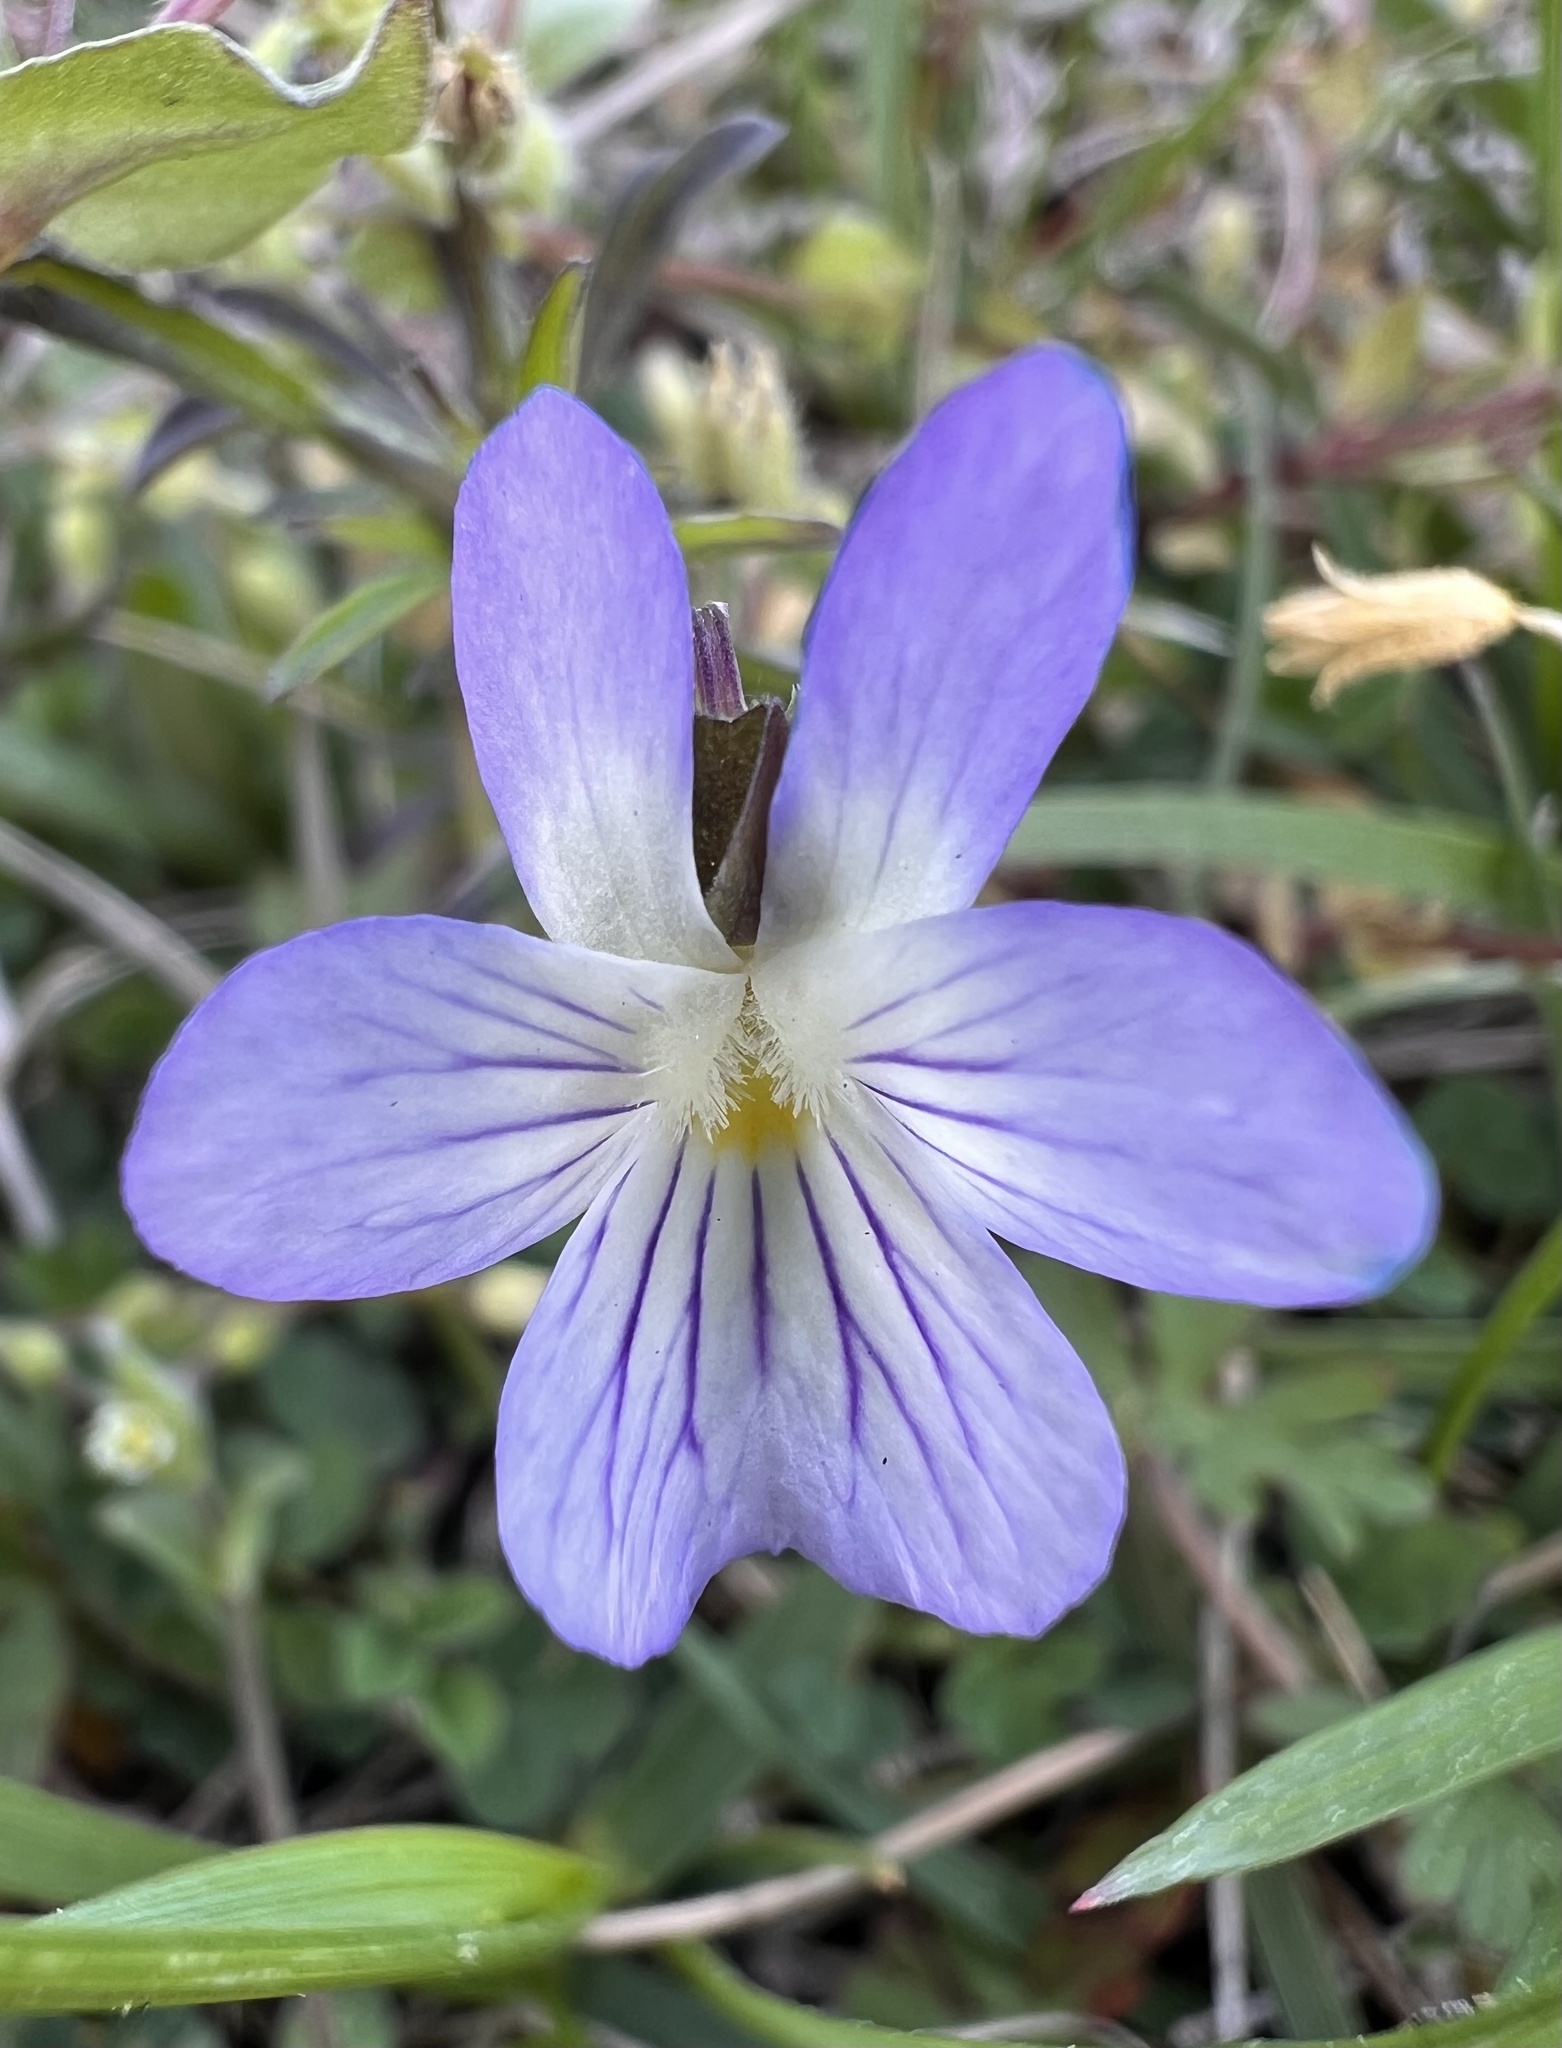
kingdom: Plantae
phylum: Tracheophyta
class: Magnoliopsida
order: Malpighiales
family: Violaceae
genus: Viola
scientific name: Viola rafinesquei
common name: American field pansy
